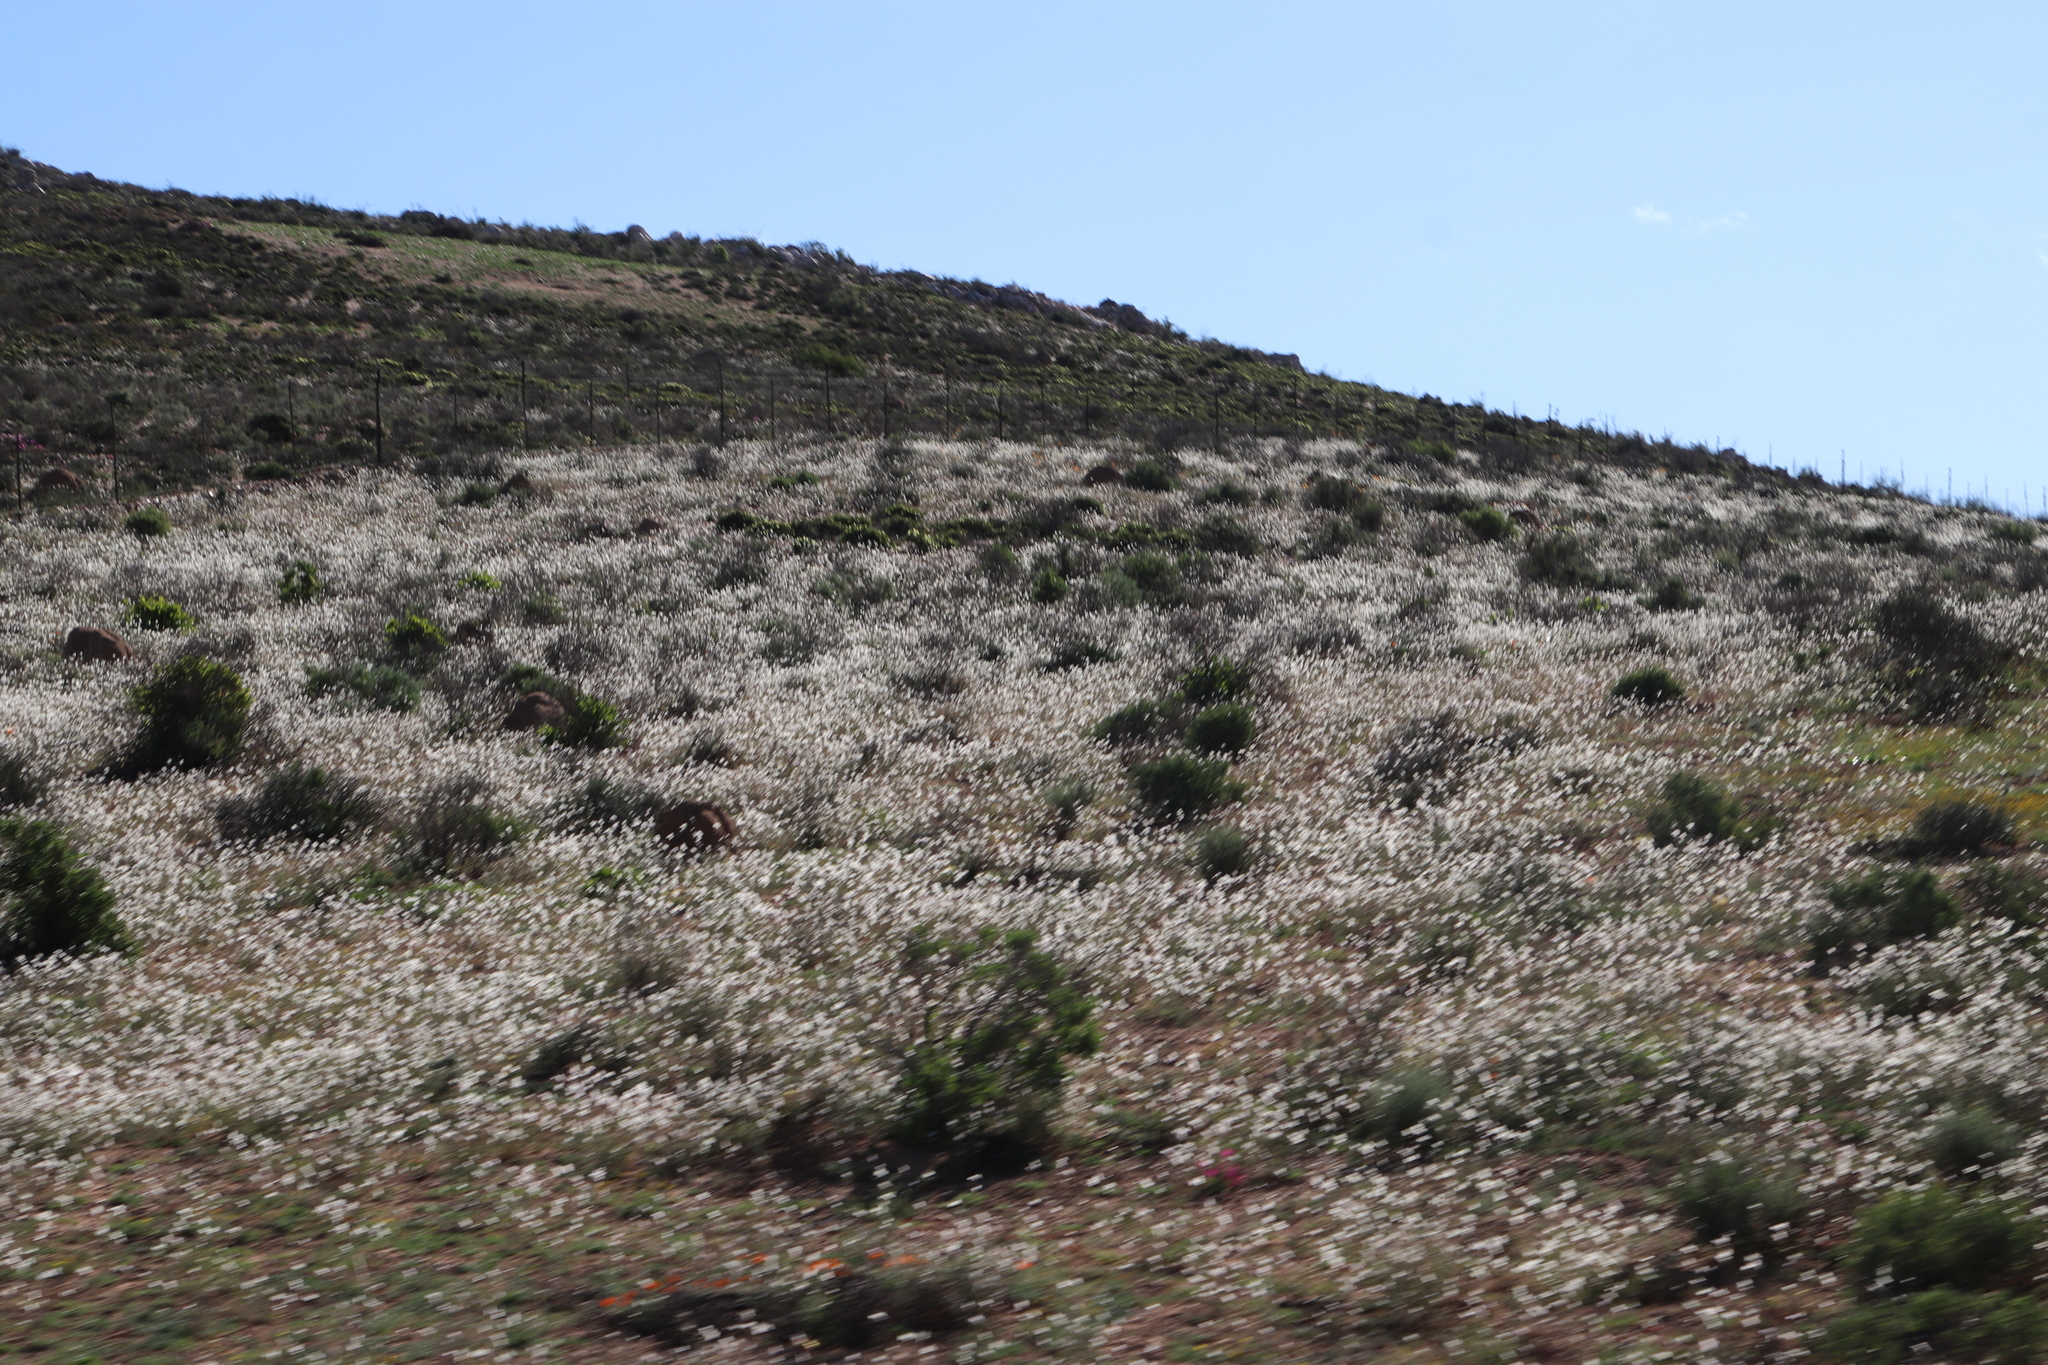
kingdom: Plantae
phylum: Tracheophyta
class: Magnoliopsida
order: Brassicales
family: Brassicaceae
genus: Heliophila
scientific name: Heliophila variabilis
